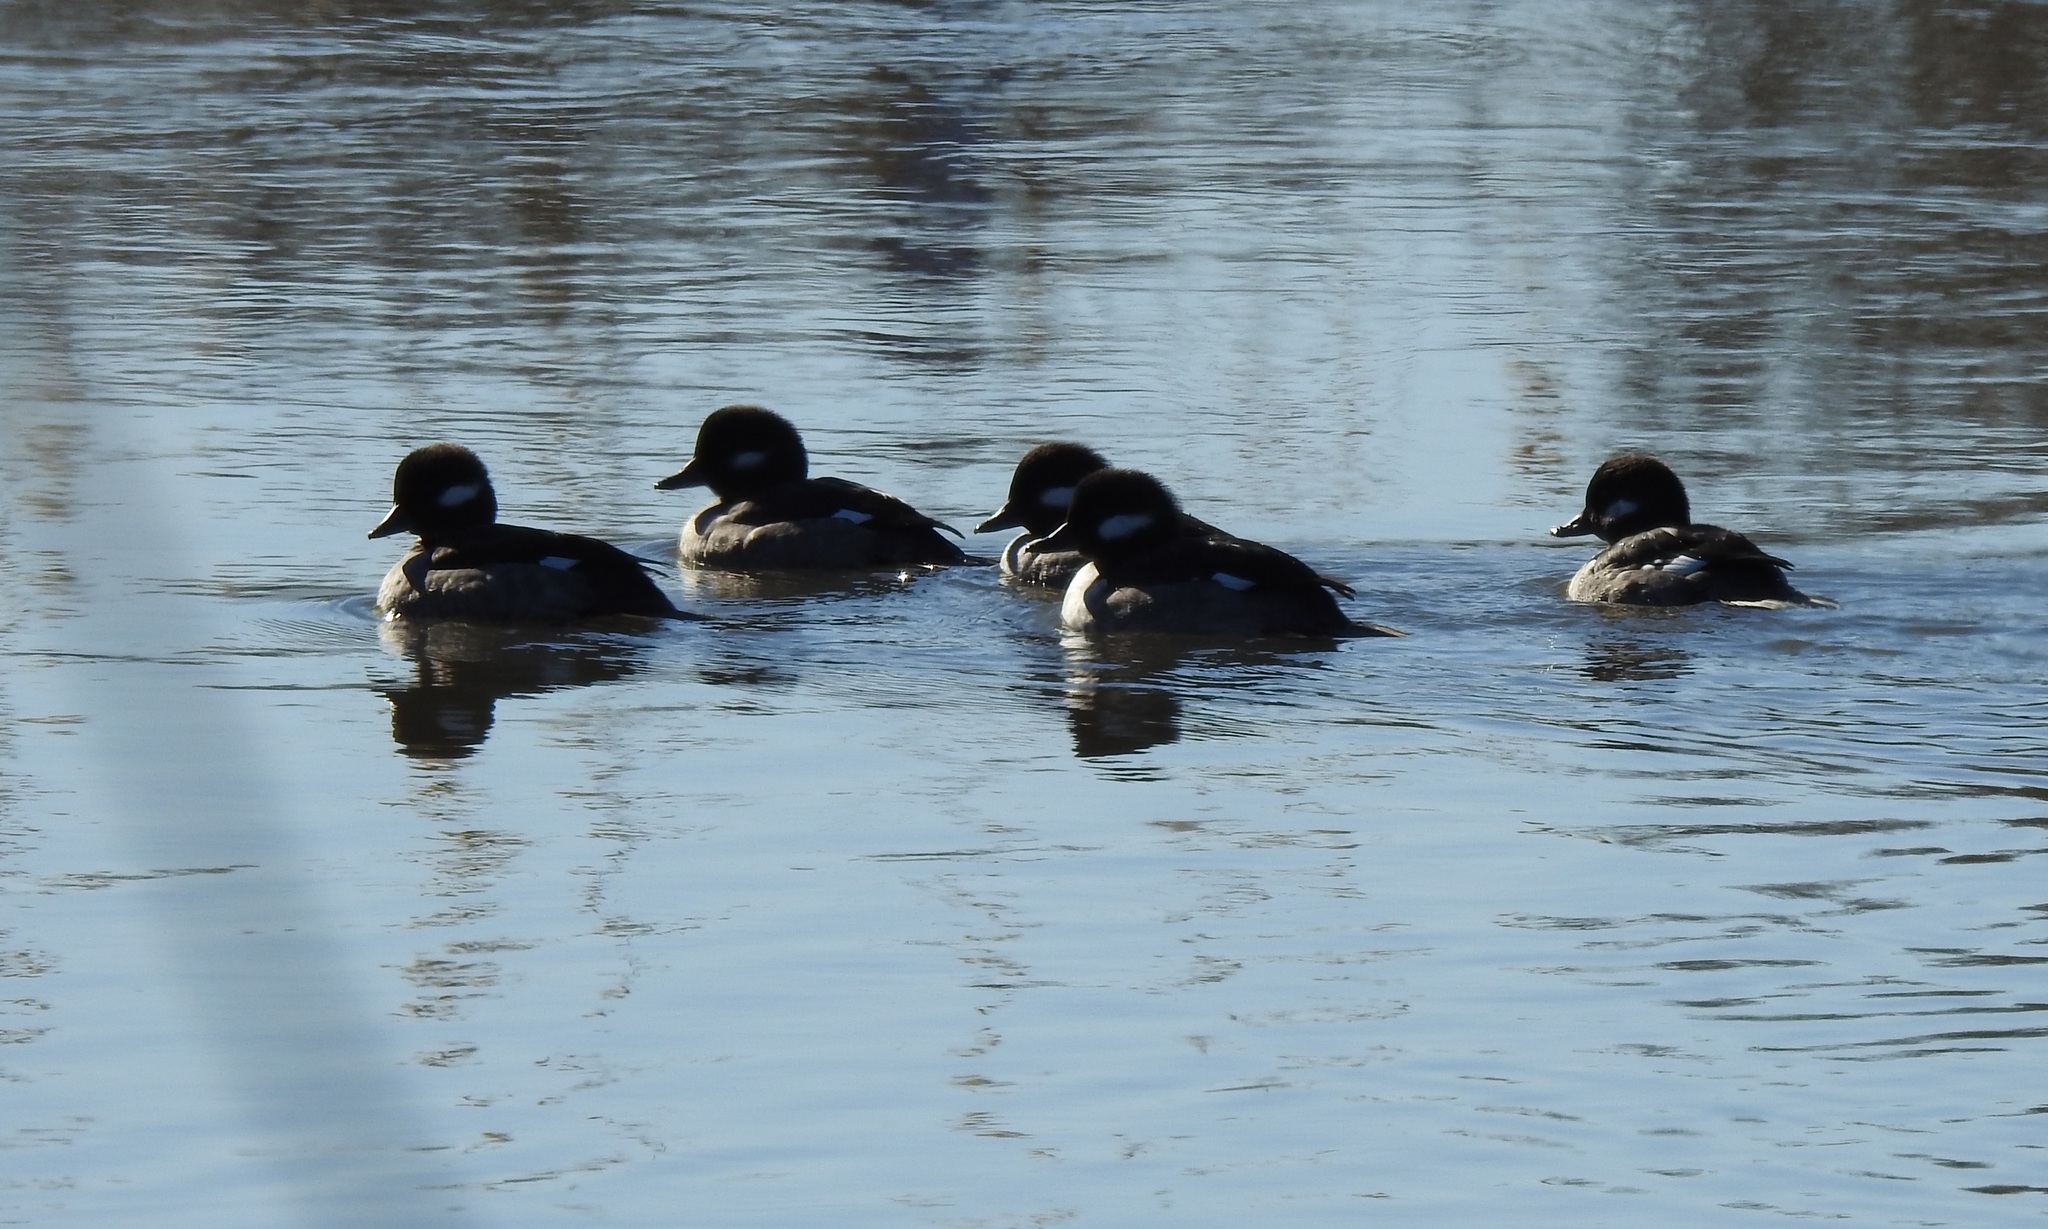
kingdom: Animalia
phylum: Chordata
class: Aves
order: Anseriformes
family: Anatidae
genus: Bucephala
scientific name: Bucephala albeola
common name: Bufflehead
